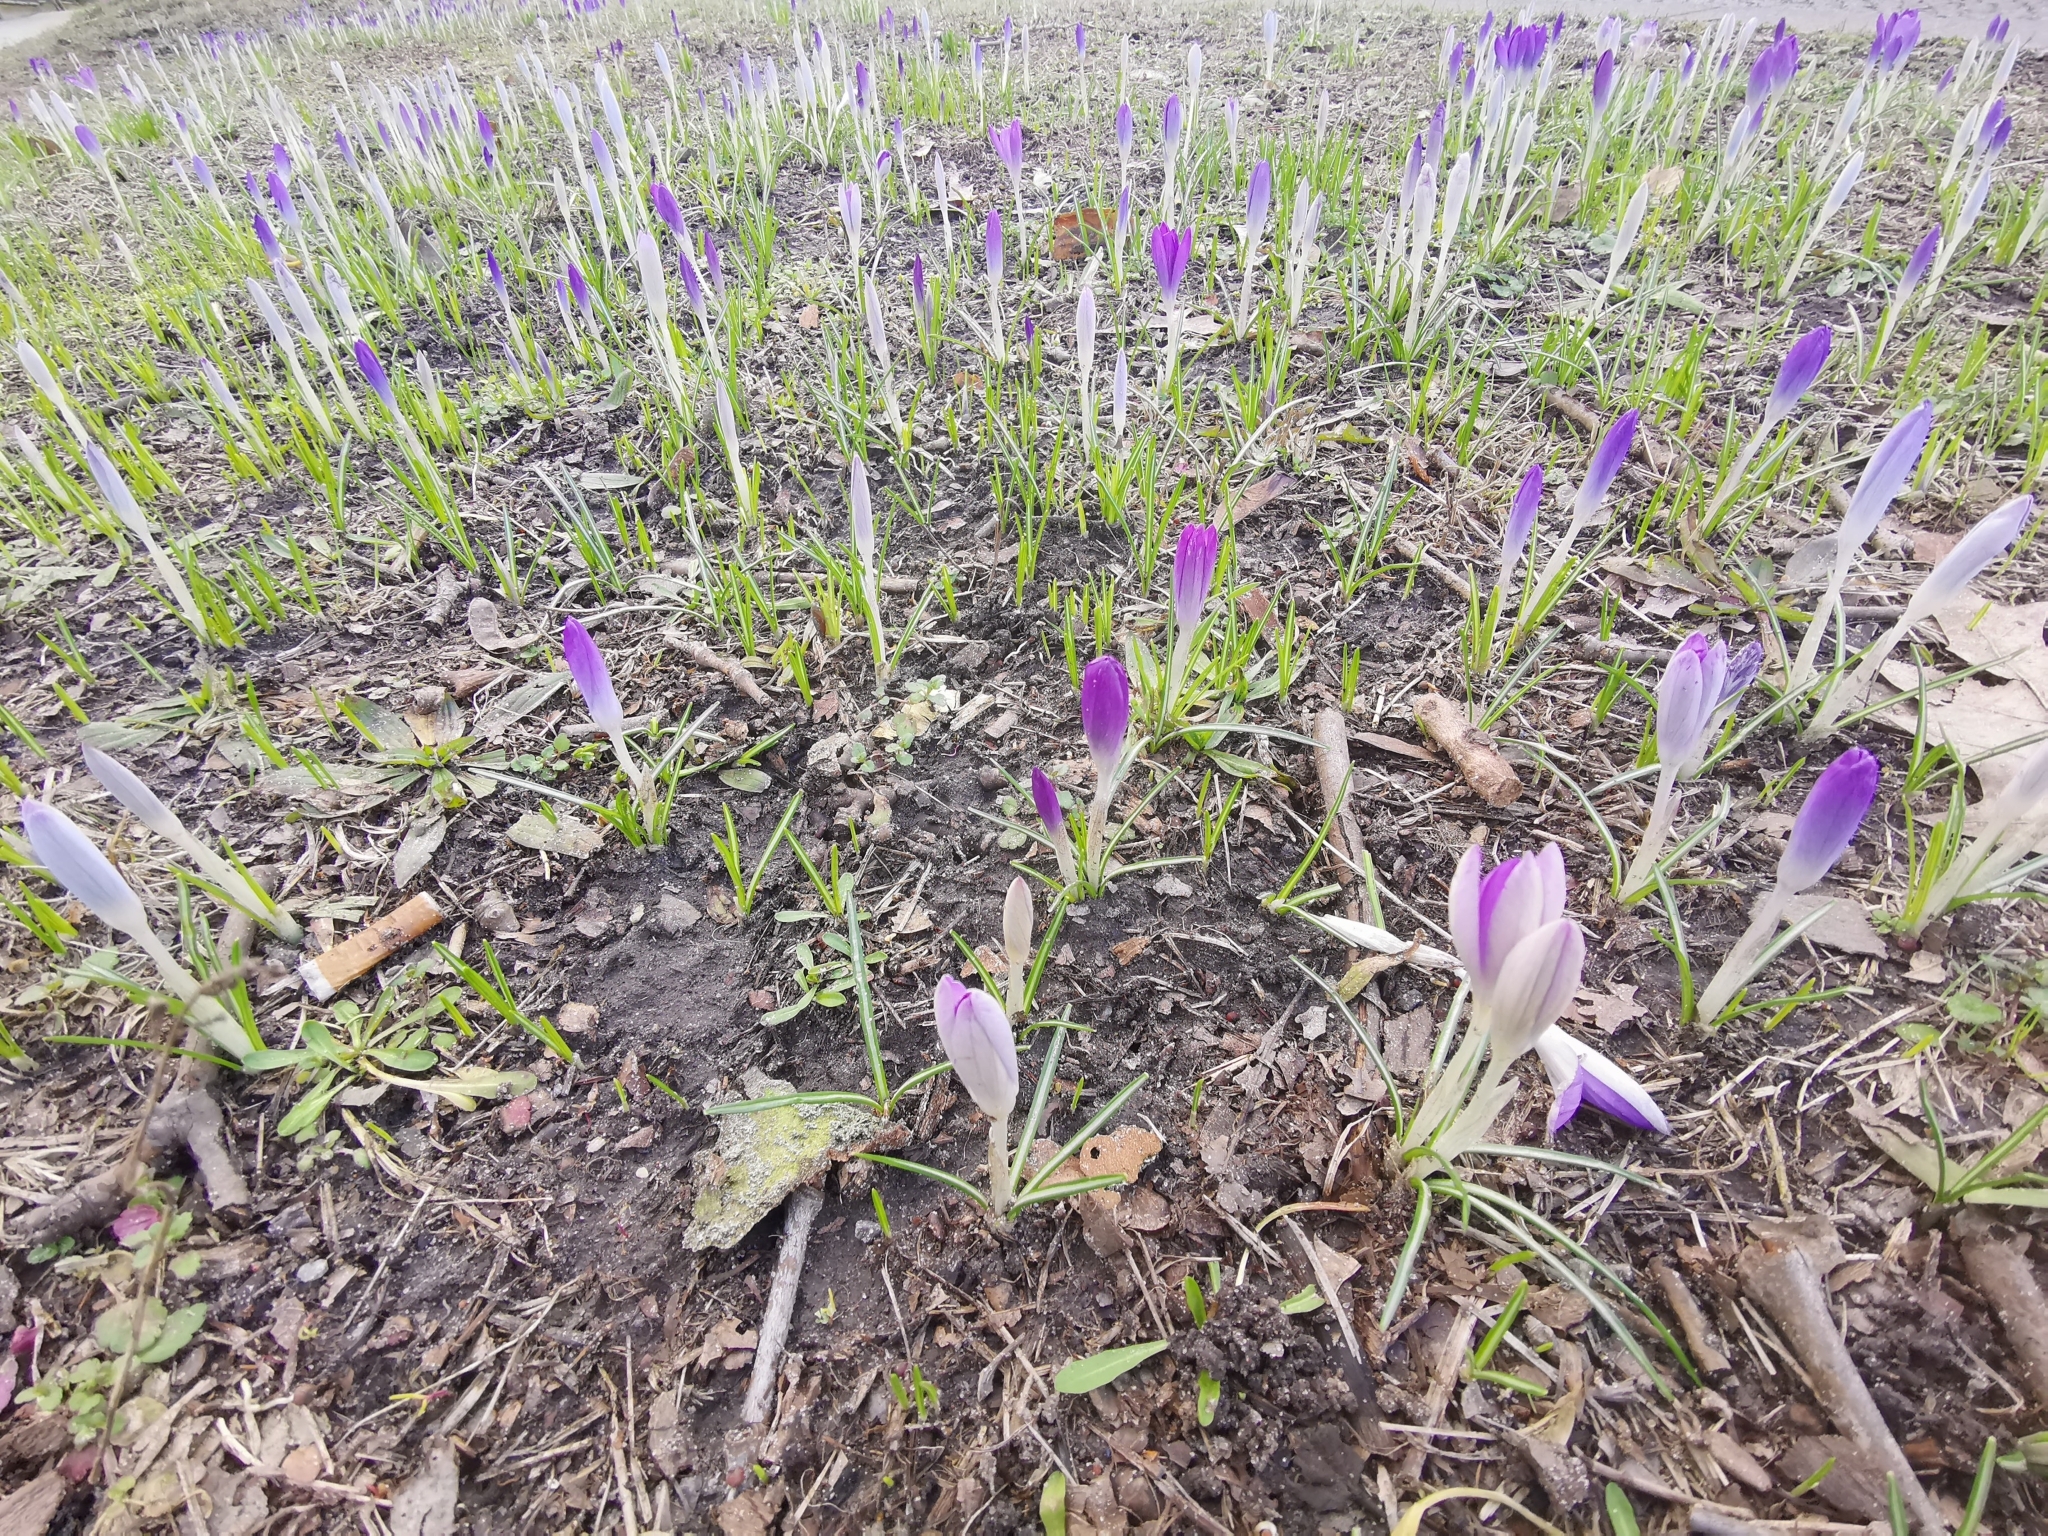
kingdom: Plantae
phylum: Tracheophyta
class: Liliopsida
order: Asparagales
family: Iridaceae
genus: Crocus
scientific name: Crocus tommasinianus
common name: Early crocus
